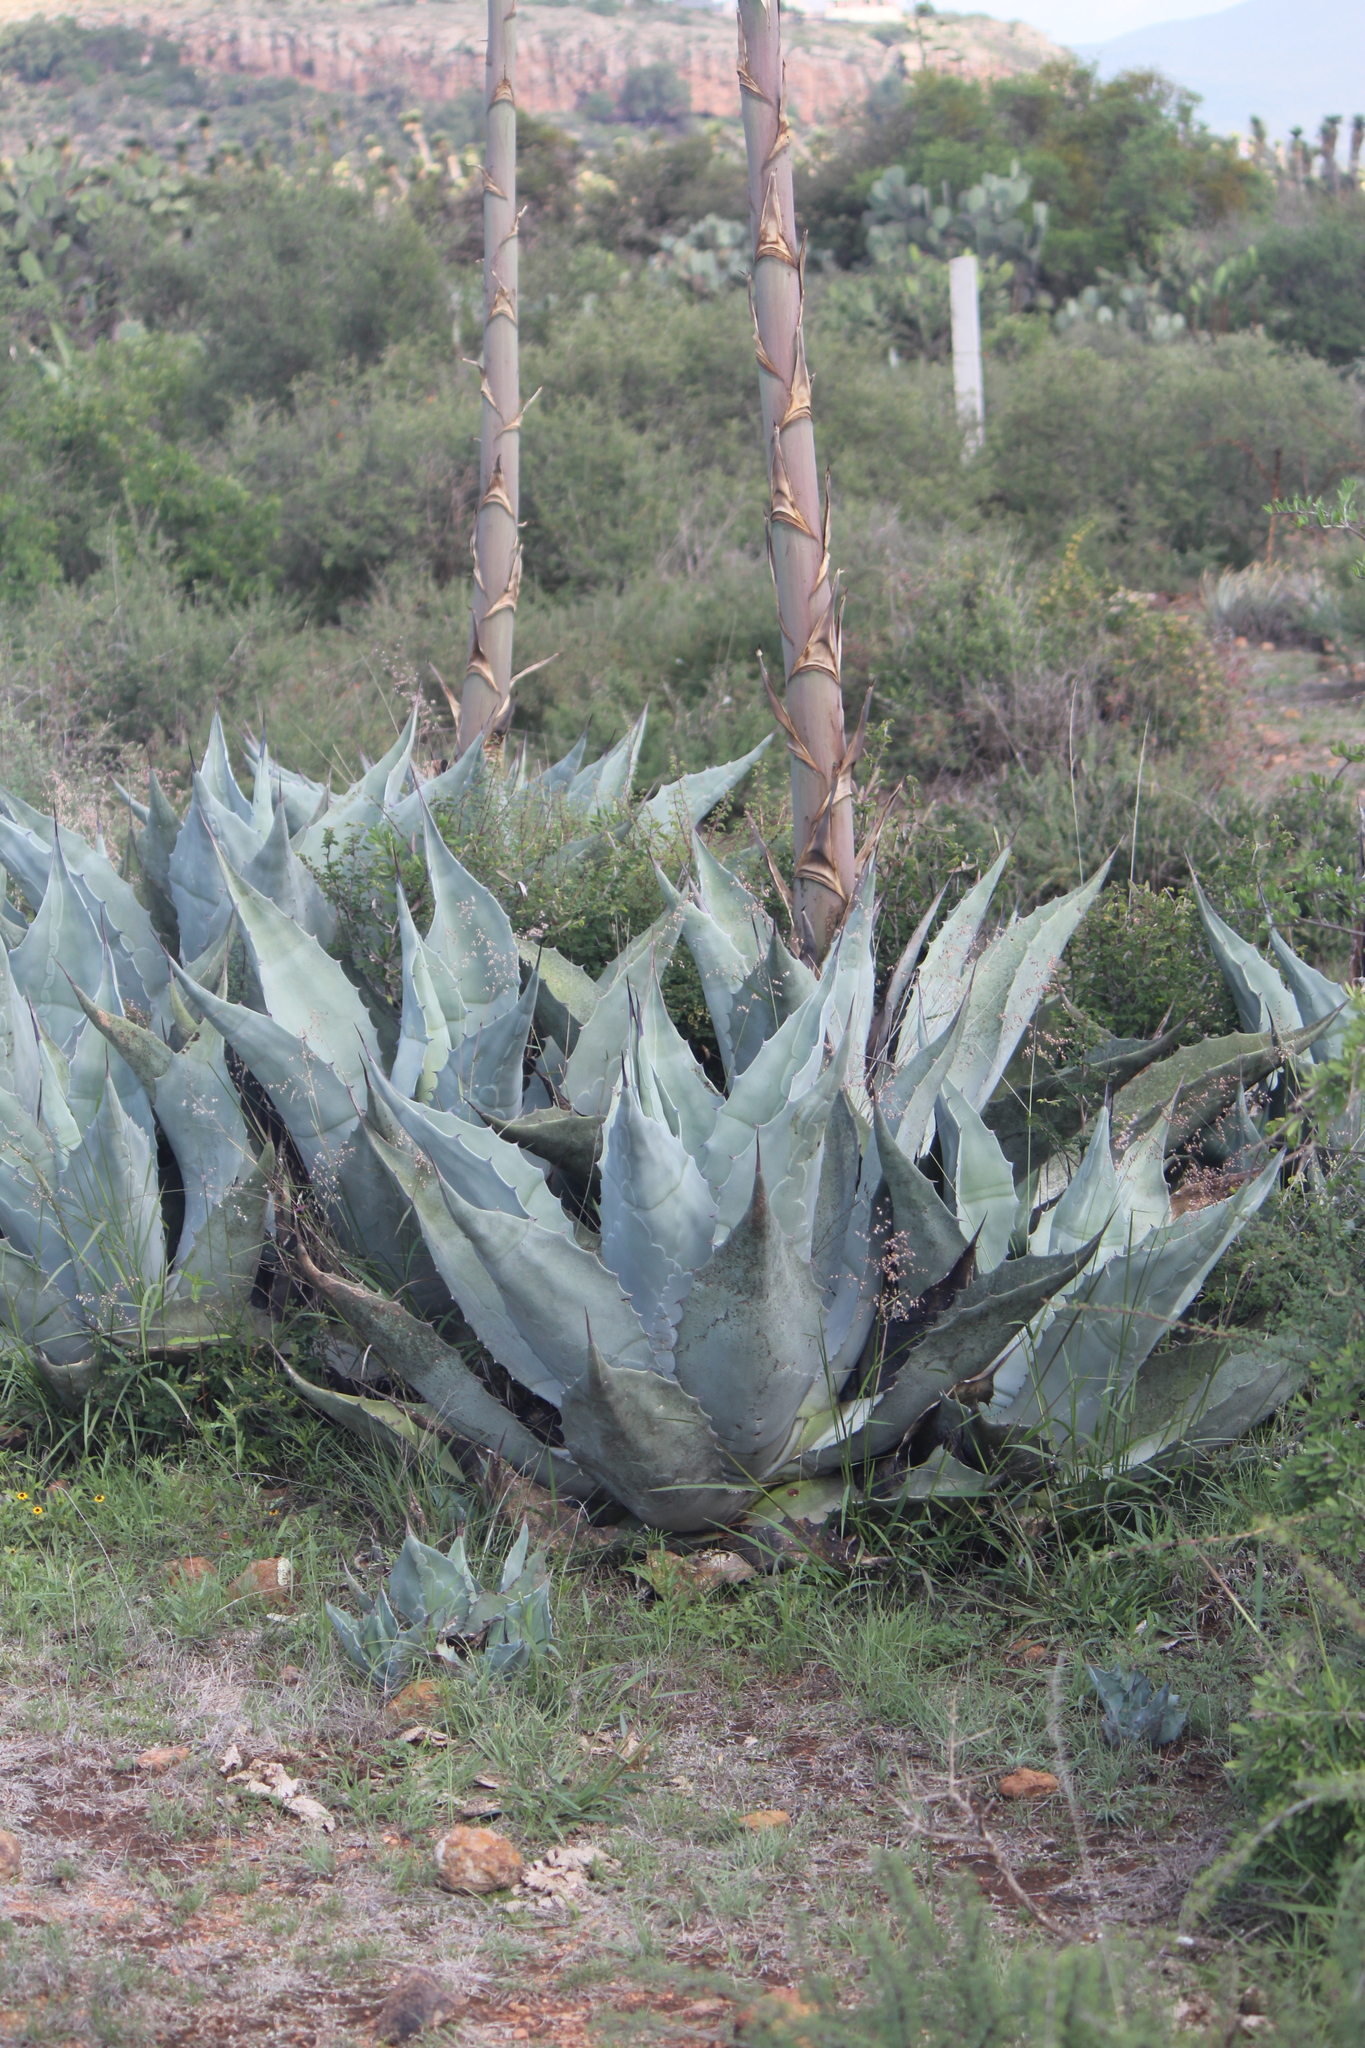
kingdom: Plantae
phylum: Tracheophyta
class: Liliopsida
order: Asparagales
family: Asparagaceae
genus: Agave
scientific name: Agave salmiana
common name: Pulque agave
